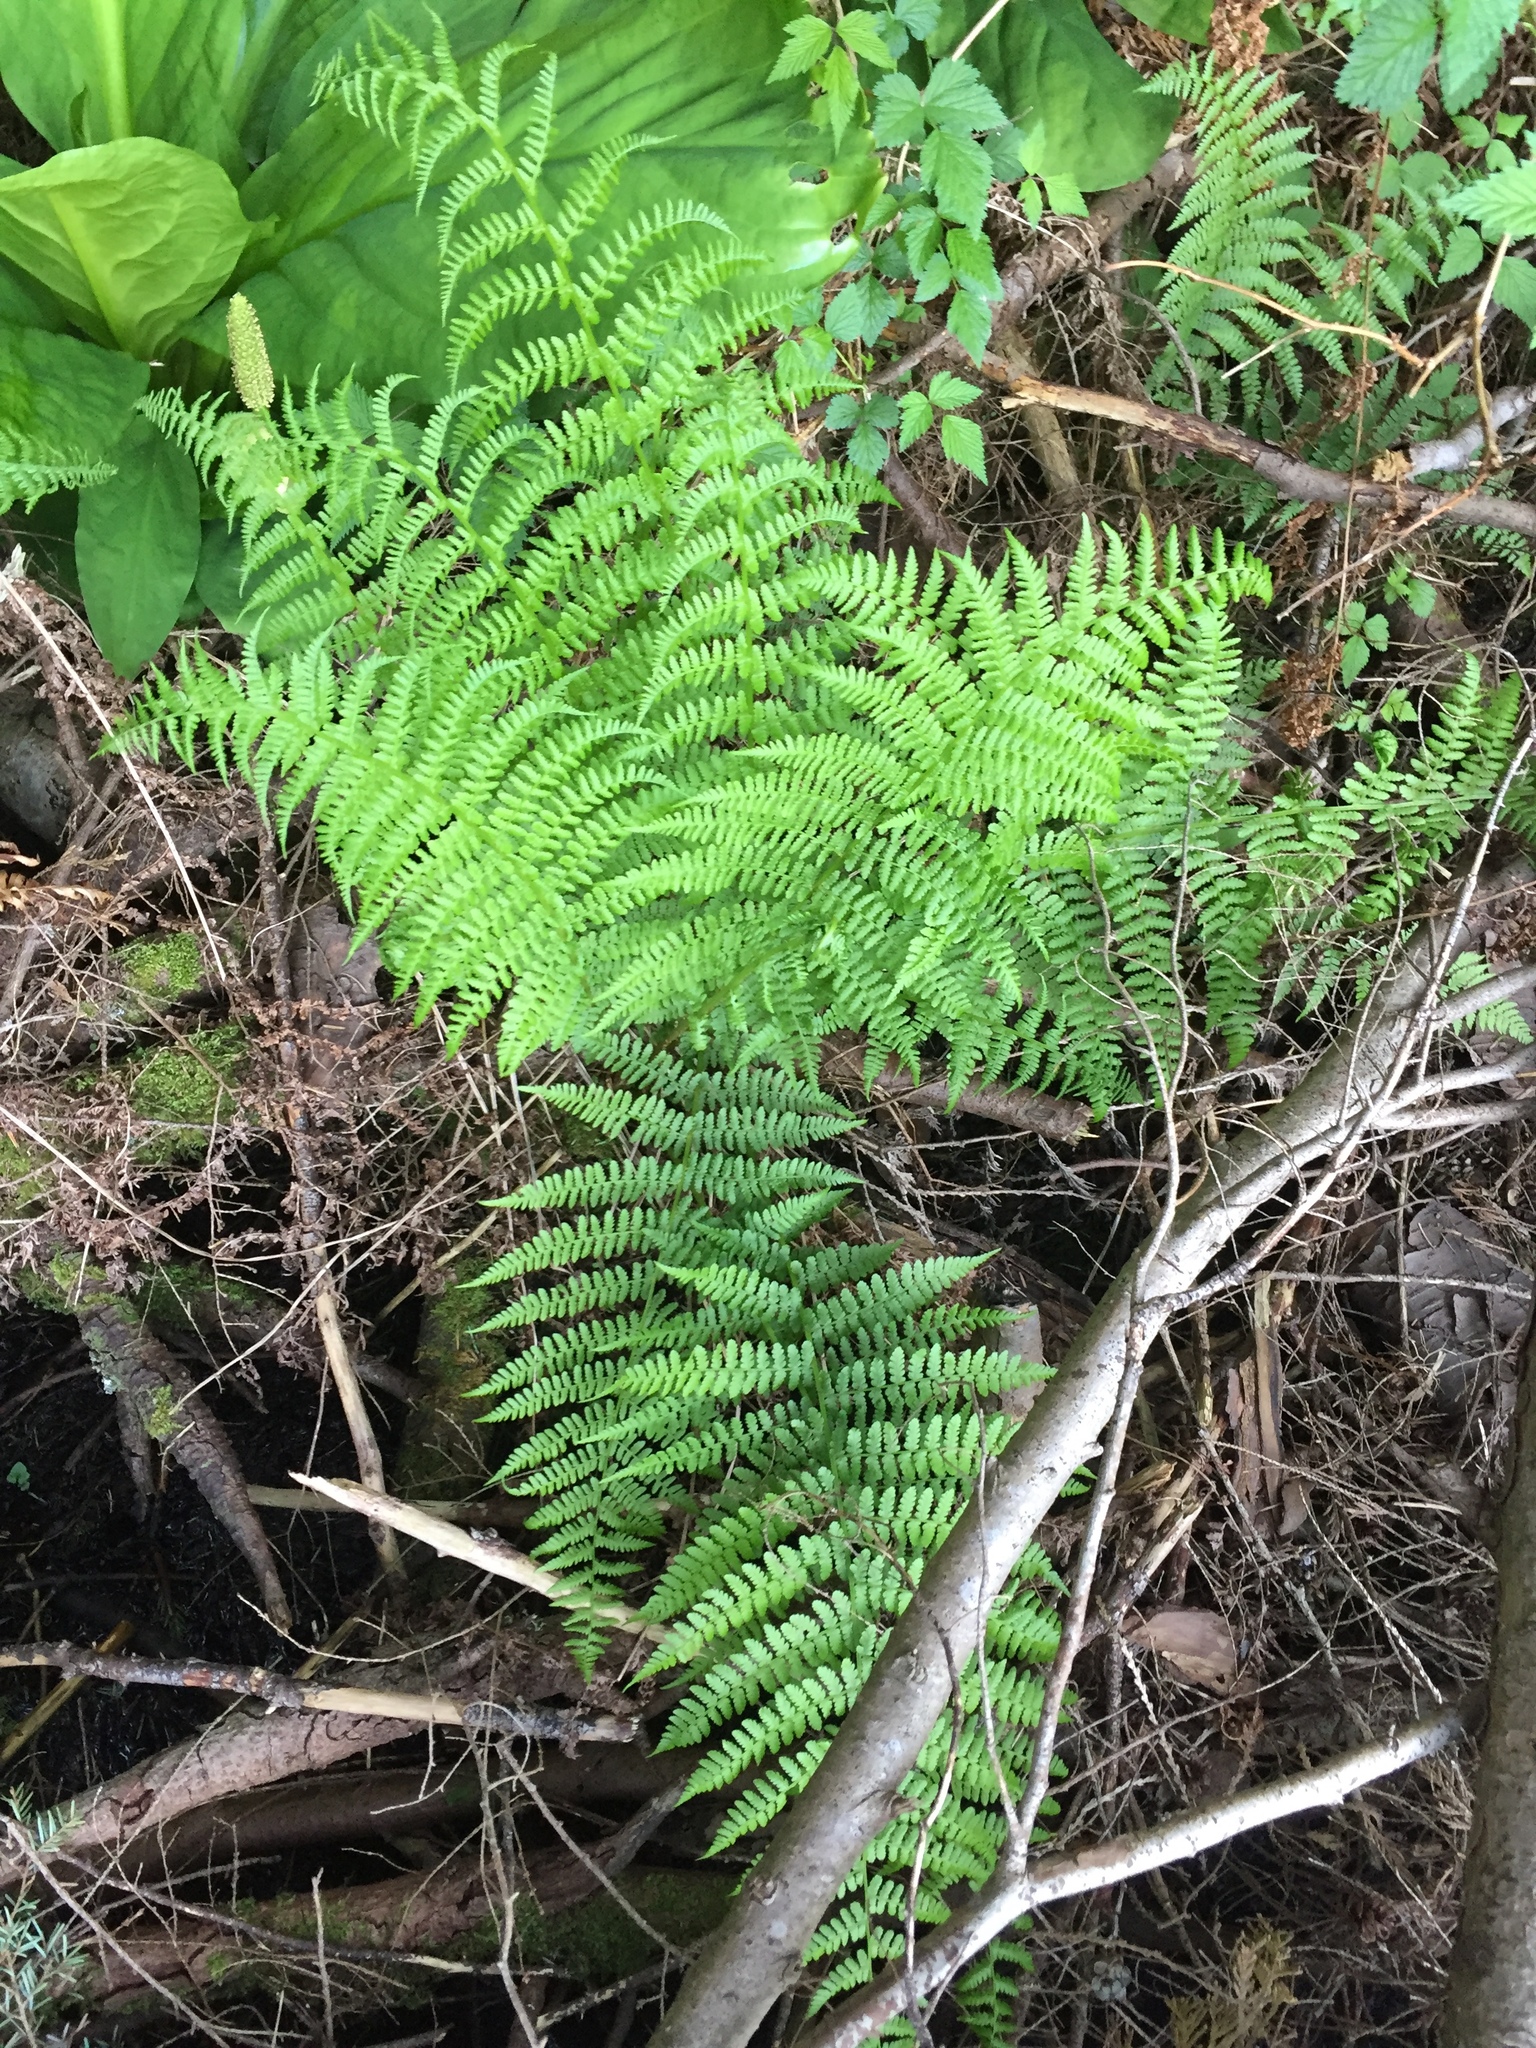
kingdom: Plantae
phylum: Tracheophyta
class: Polypodiopsida
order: Polypodiales
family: Athyriaceae
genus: Athyrium
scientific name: Athyrium filix-femina
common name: Lady fern
